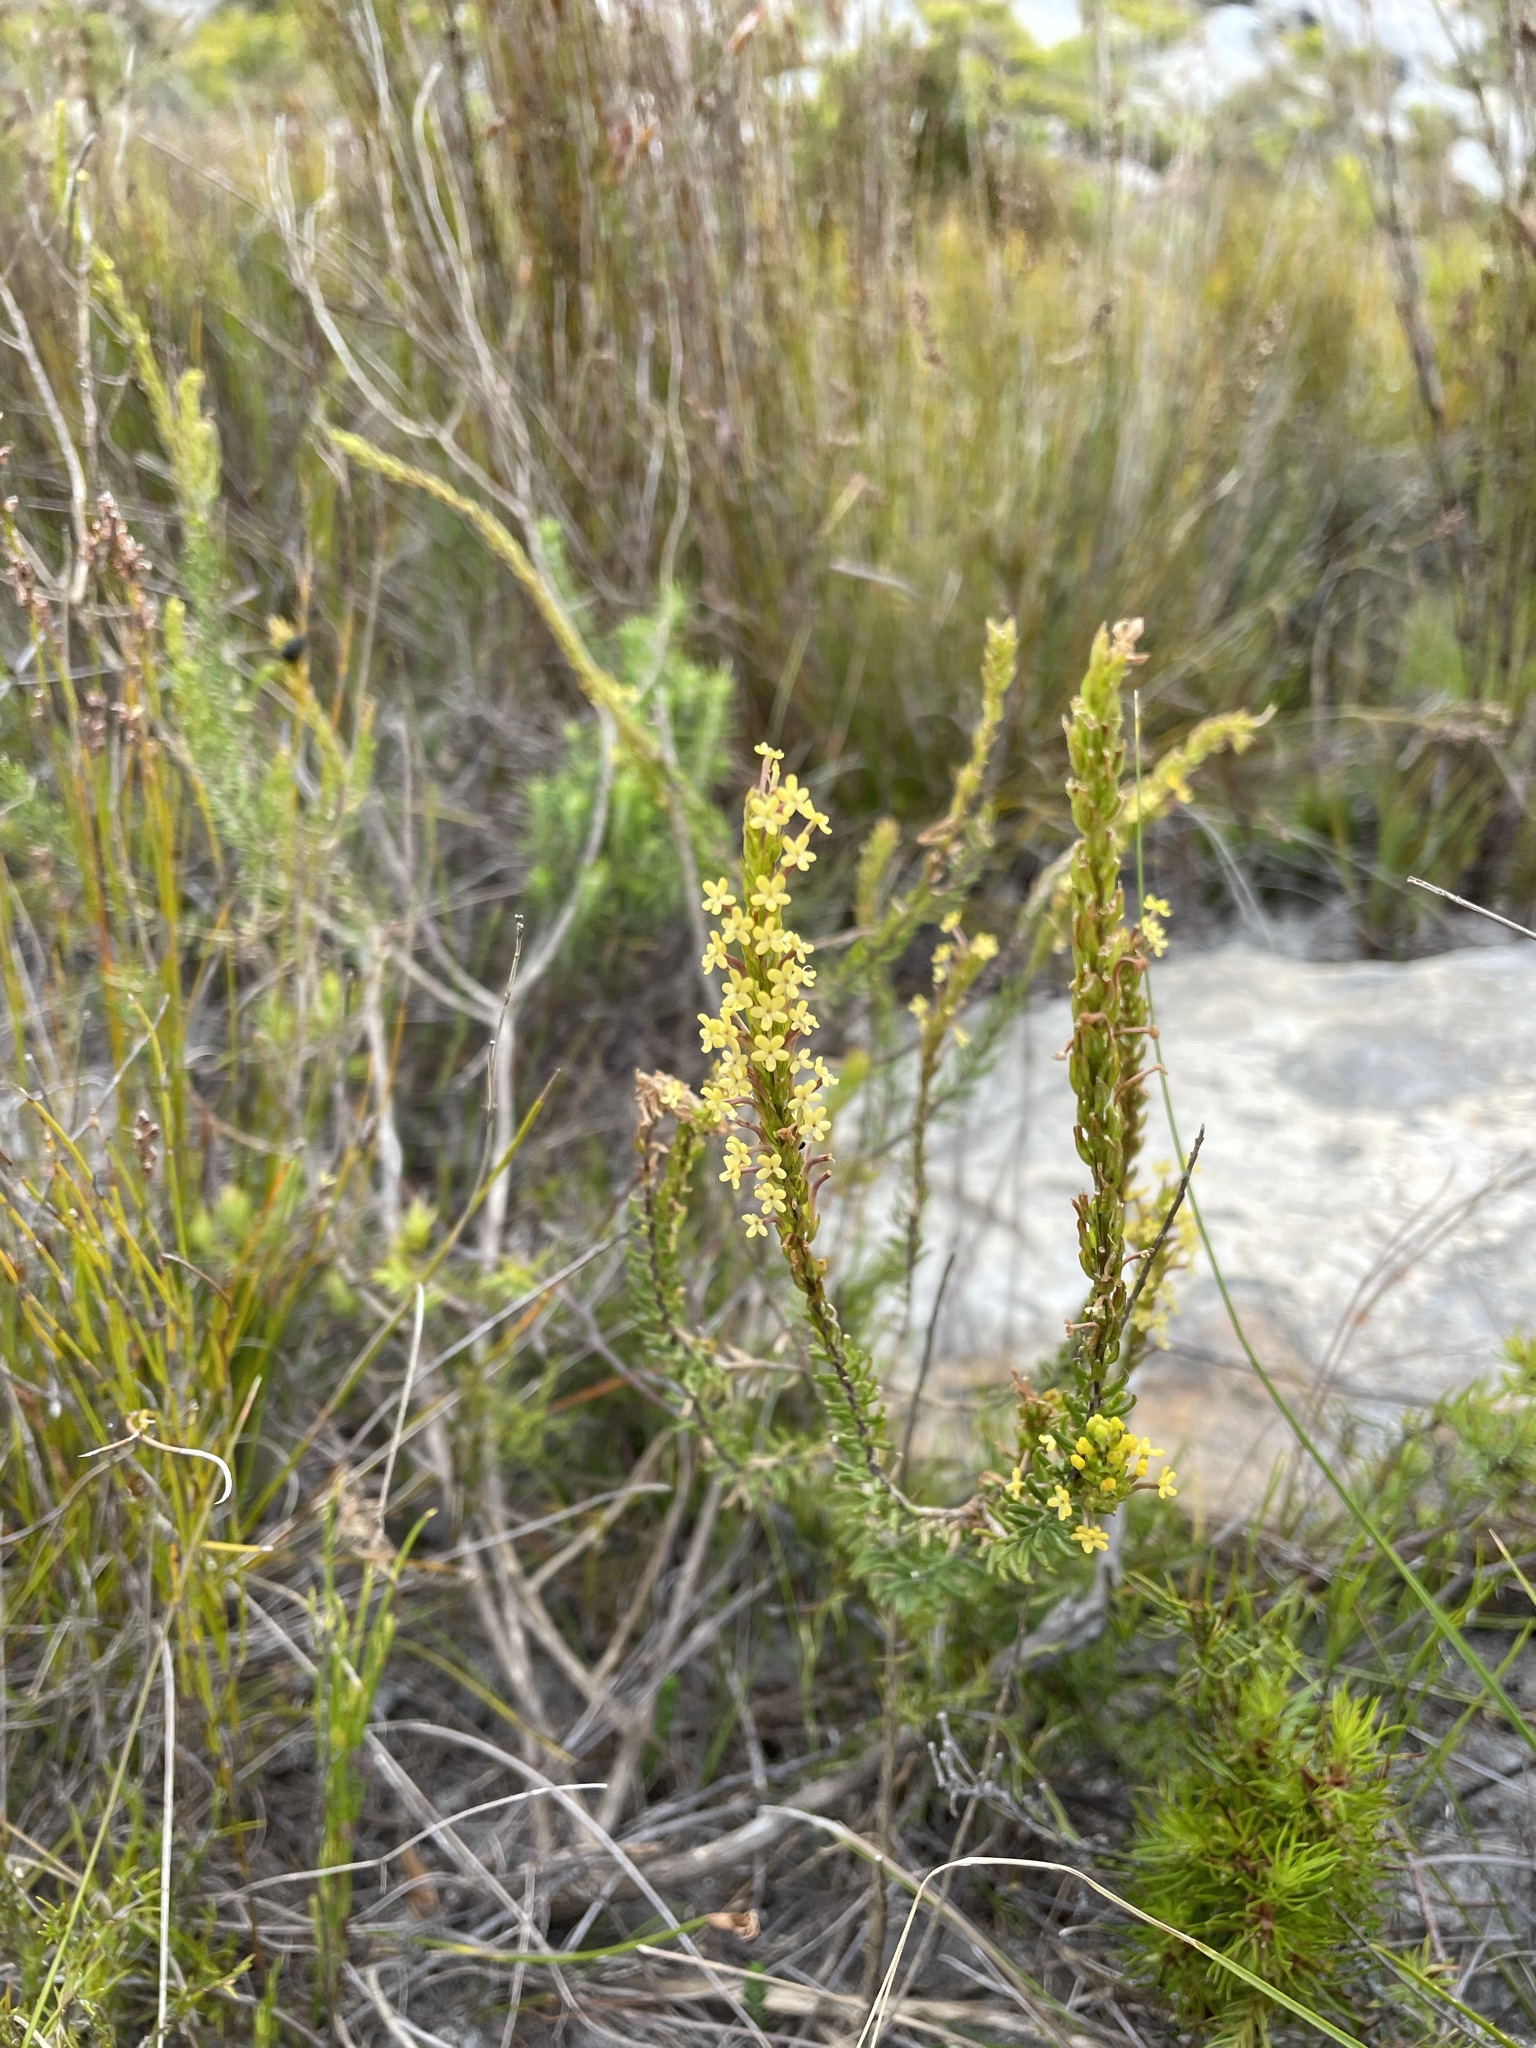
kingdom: Plantae
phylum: Tracheophyta
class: Magnoliopsida
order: Lamiales
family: Scrophulariaceae
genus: Microdon
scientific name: Microdon dubius
